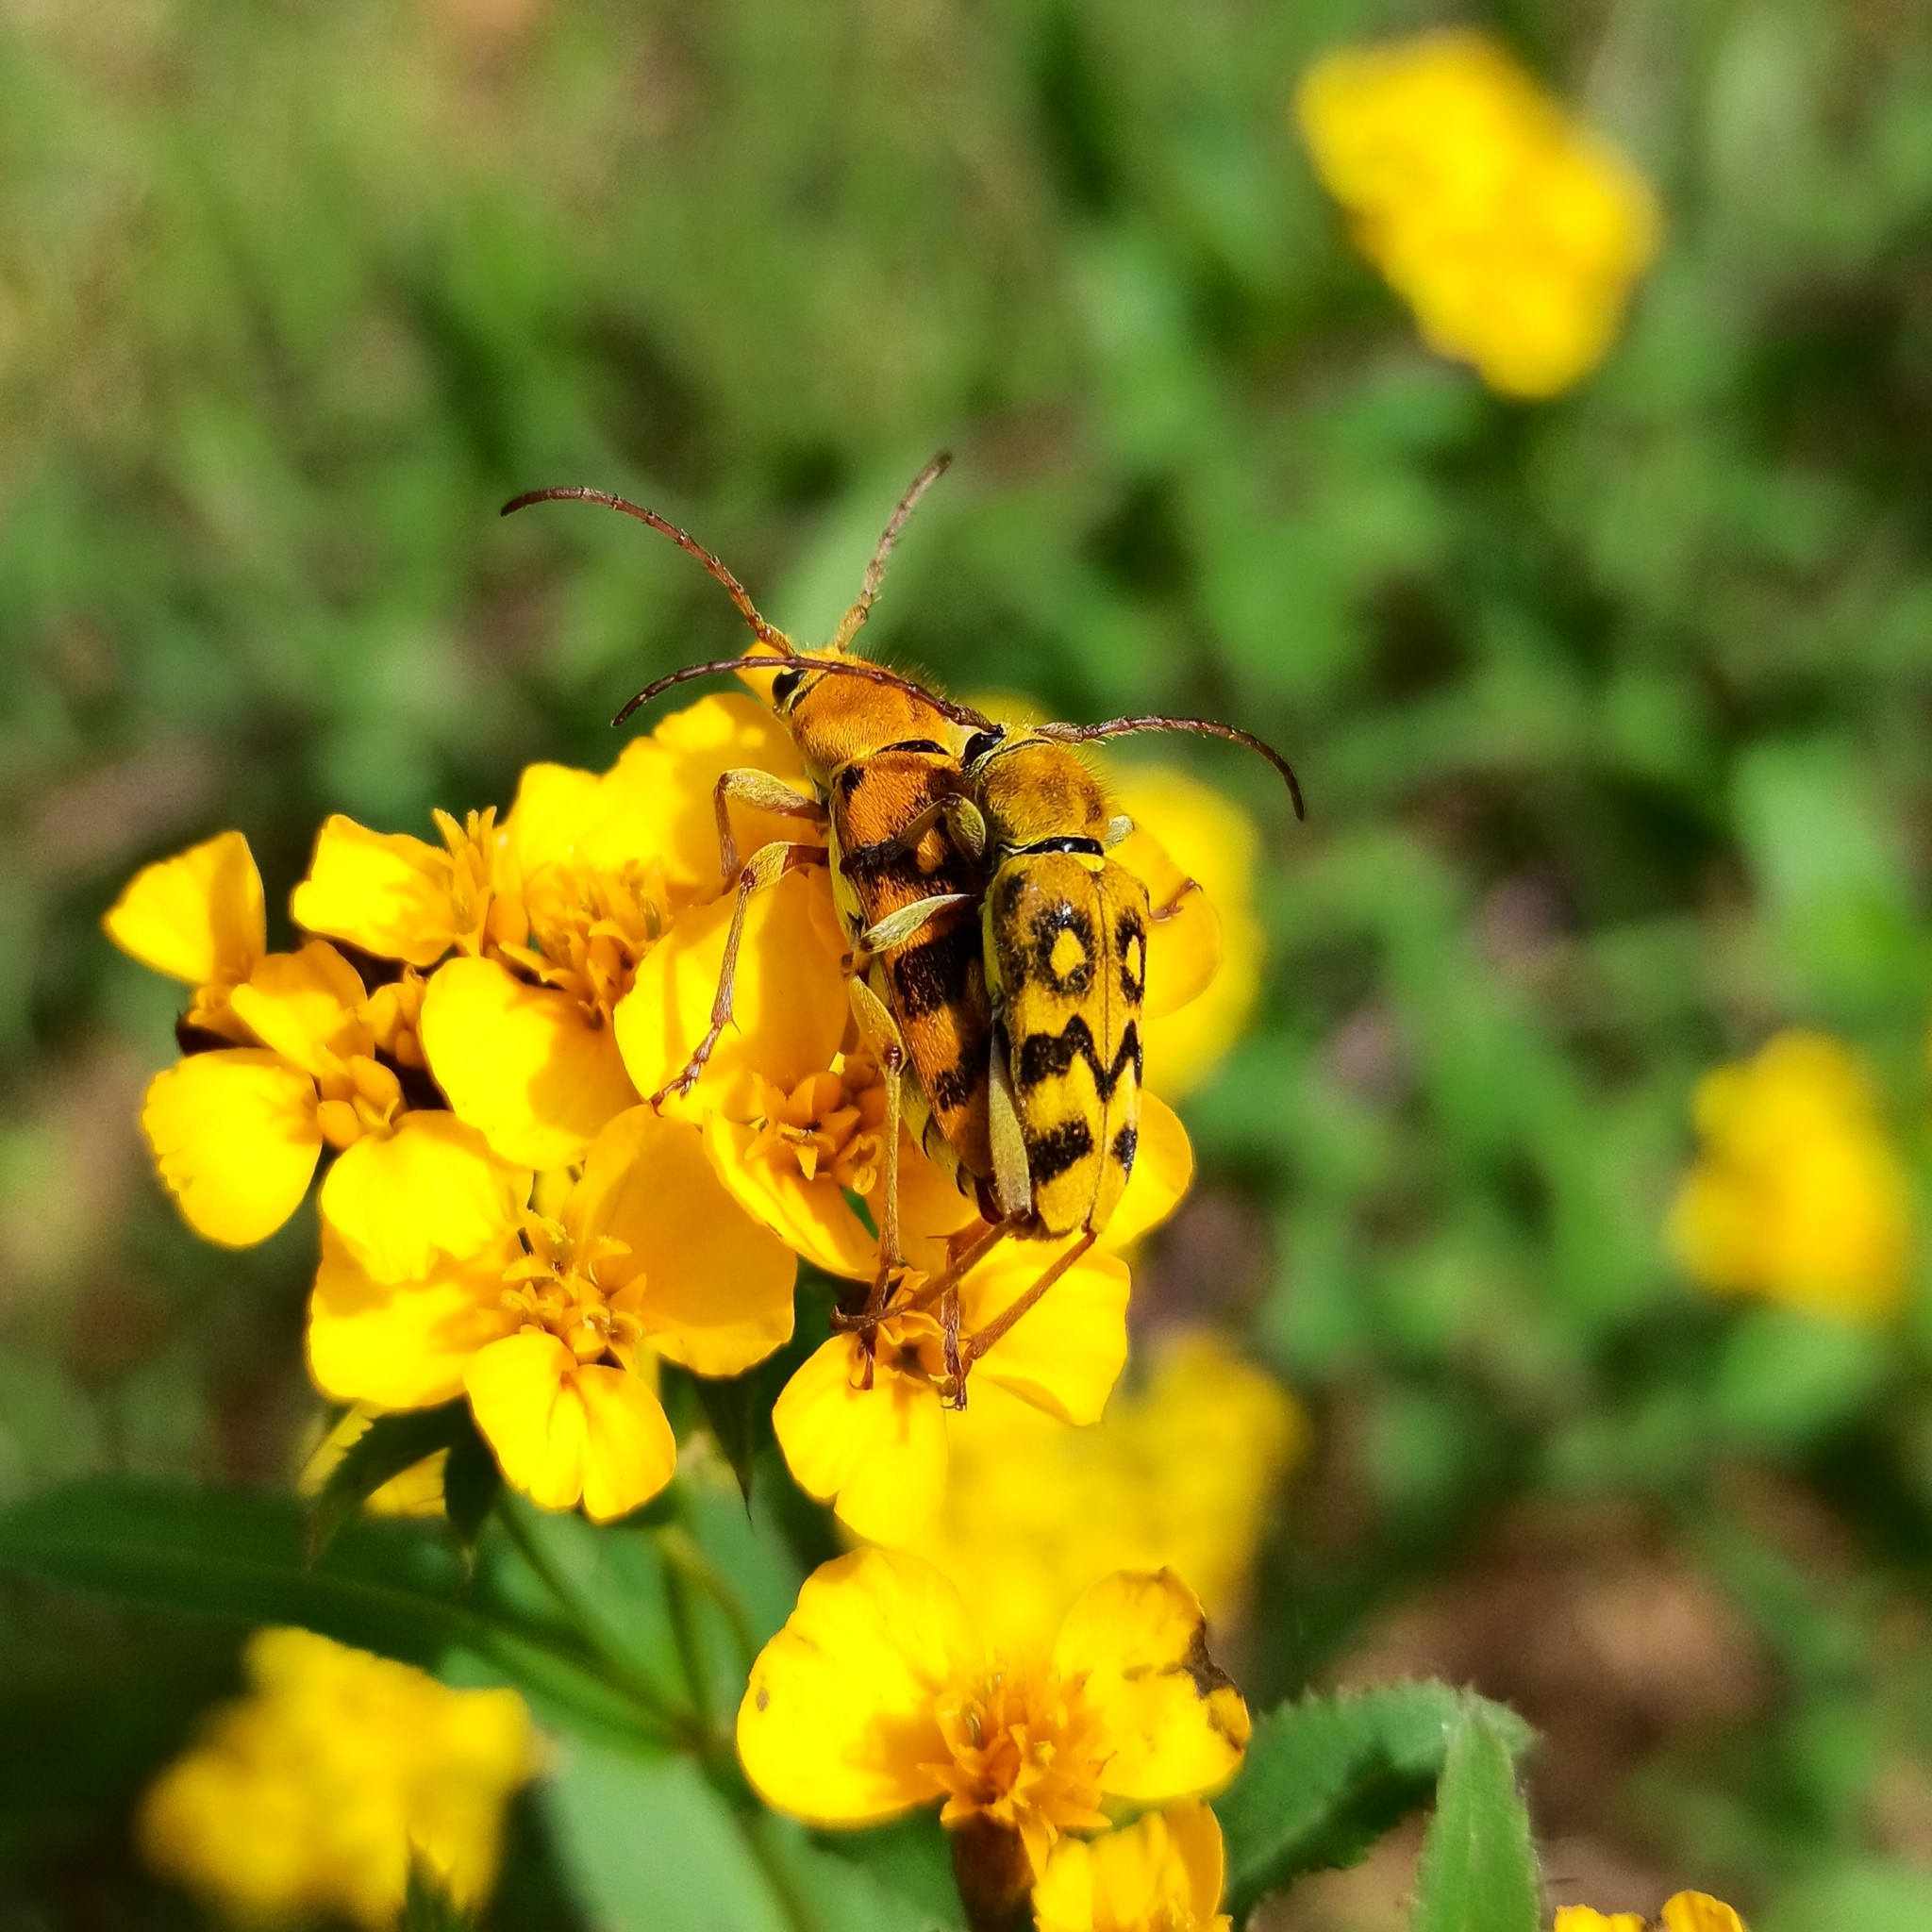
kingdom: Animalia
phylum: Arthropoda
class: Insecta
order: Coleoptera
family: Cerambycidae
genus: Ochraethes
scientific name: Ochraethes sommeri
